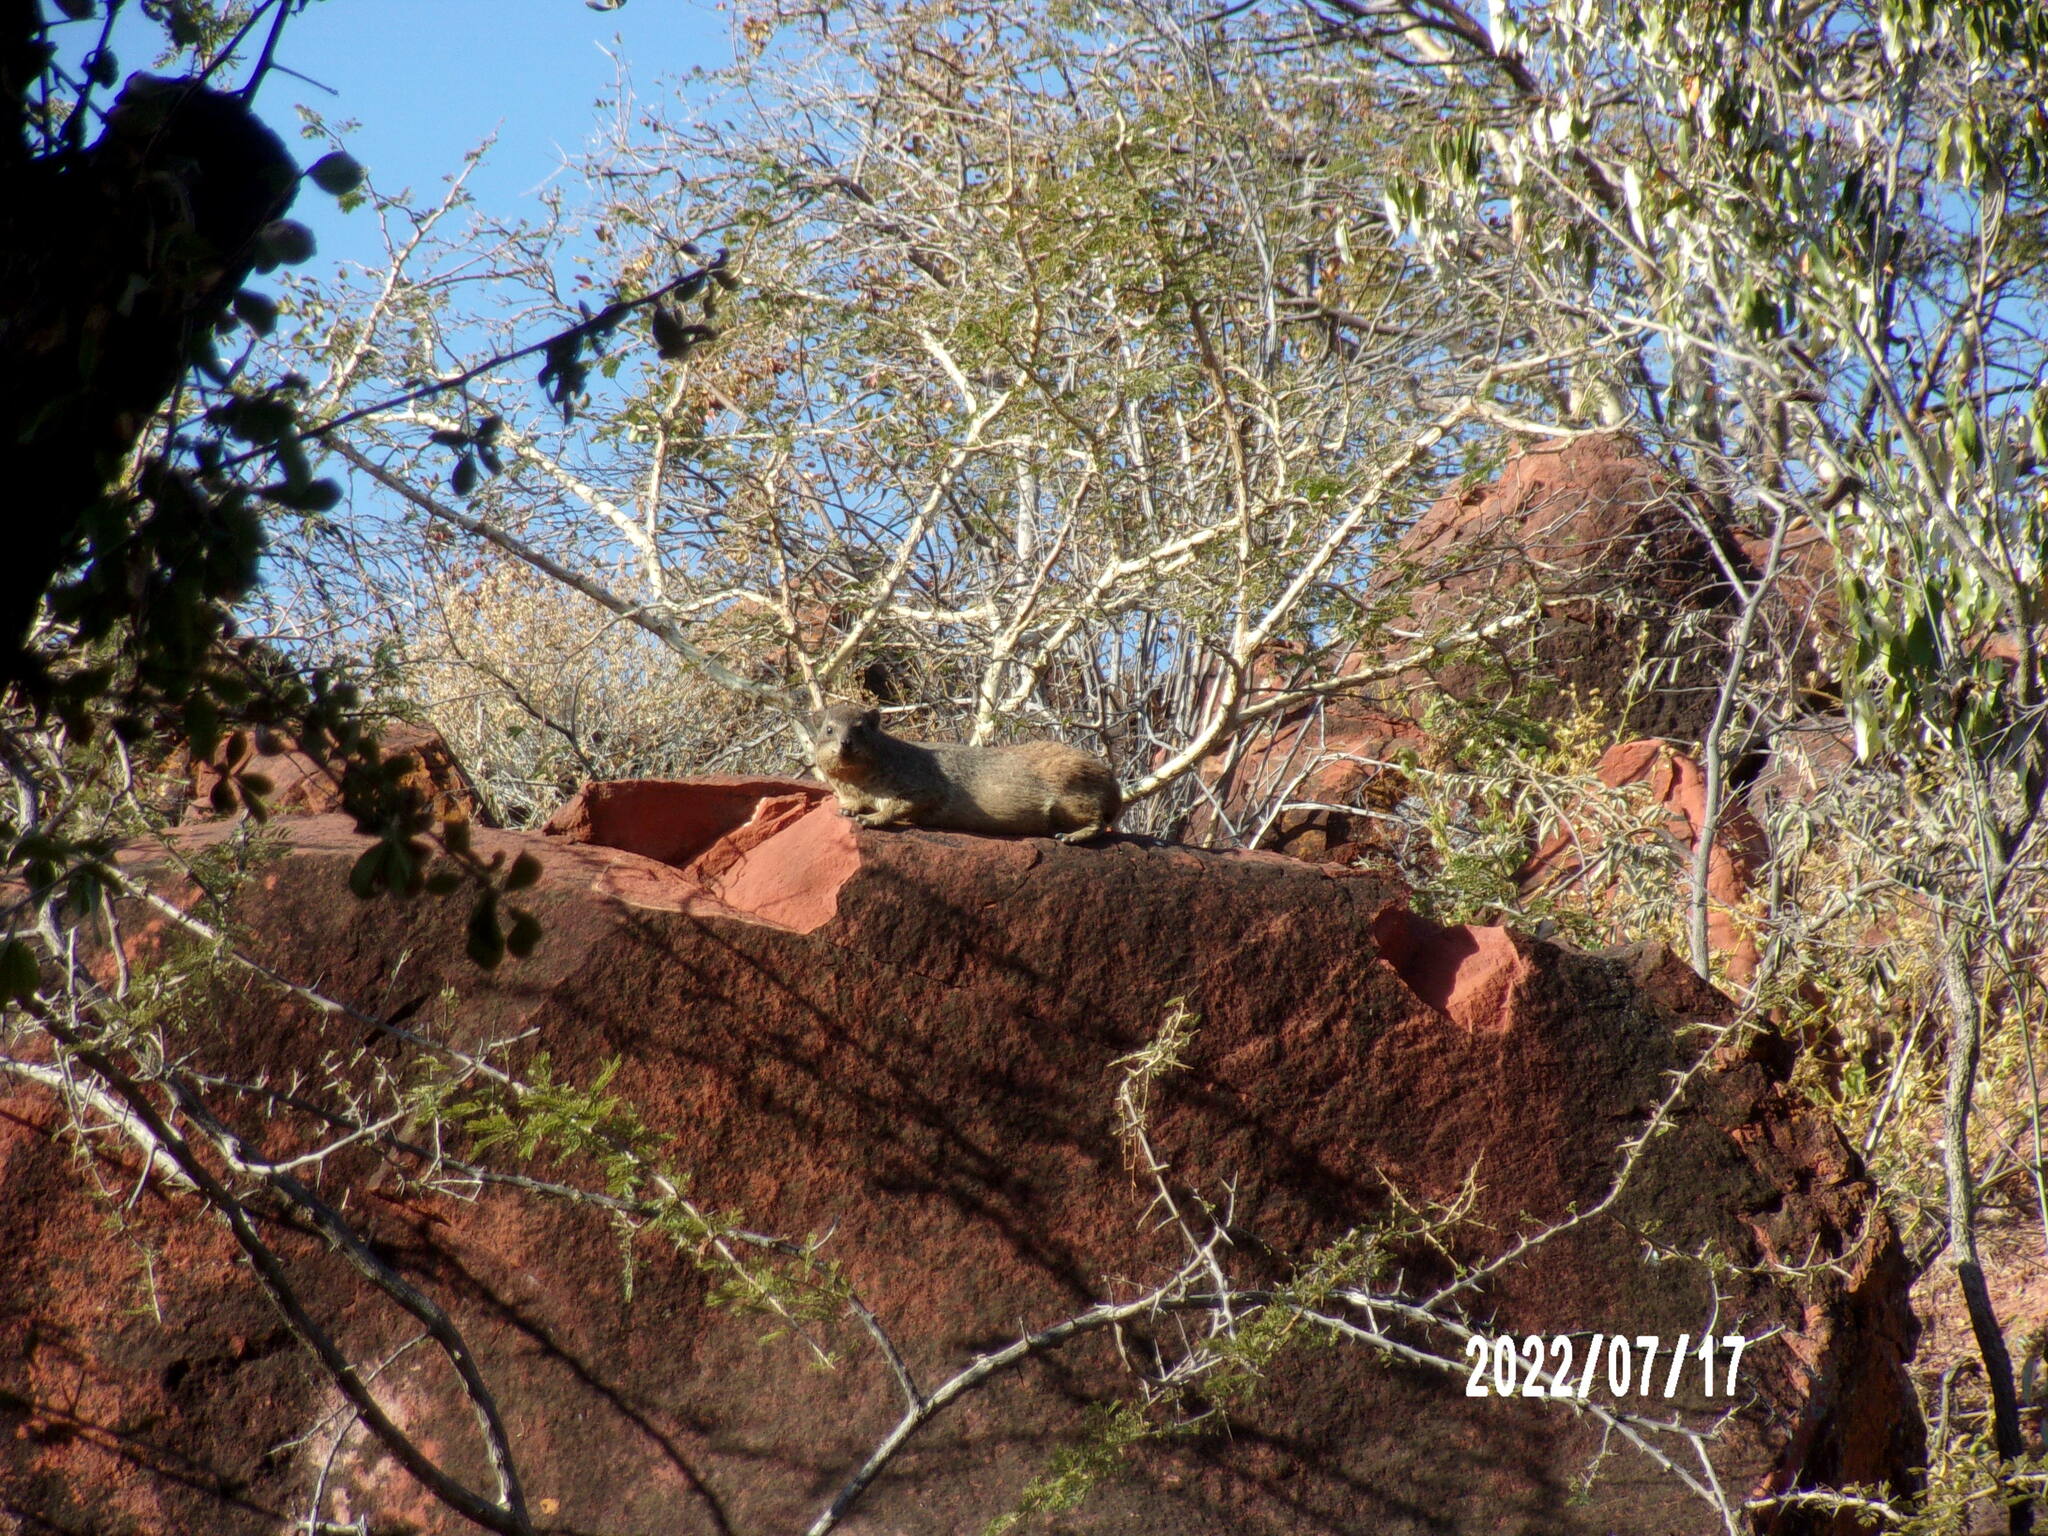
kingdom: Animalia
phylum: Chordata
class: Mammalia
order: Hyracoidea
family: Procaviidae
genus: Procavia
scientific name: Procavia capensis
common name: Rock hyrax
